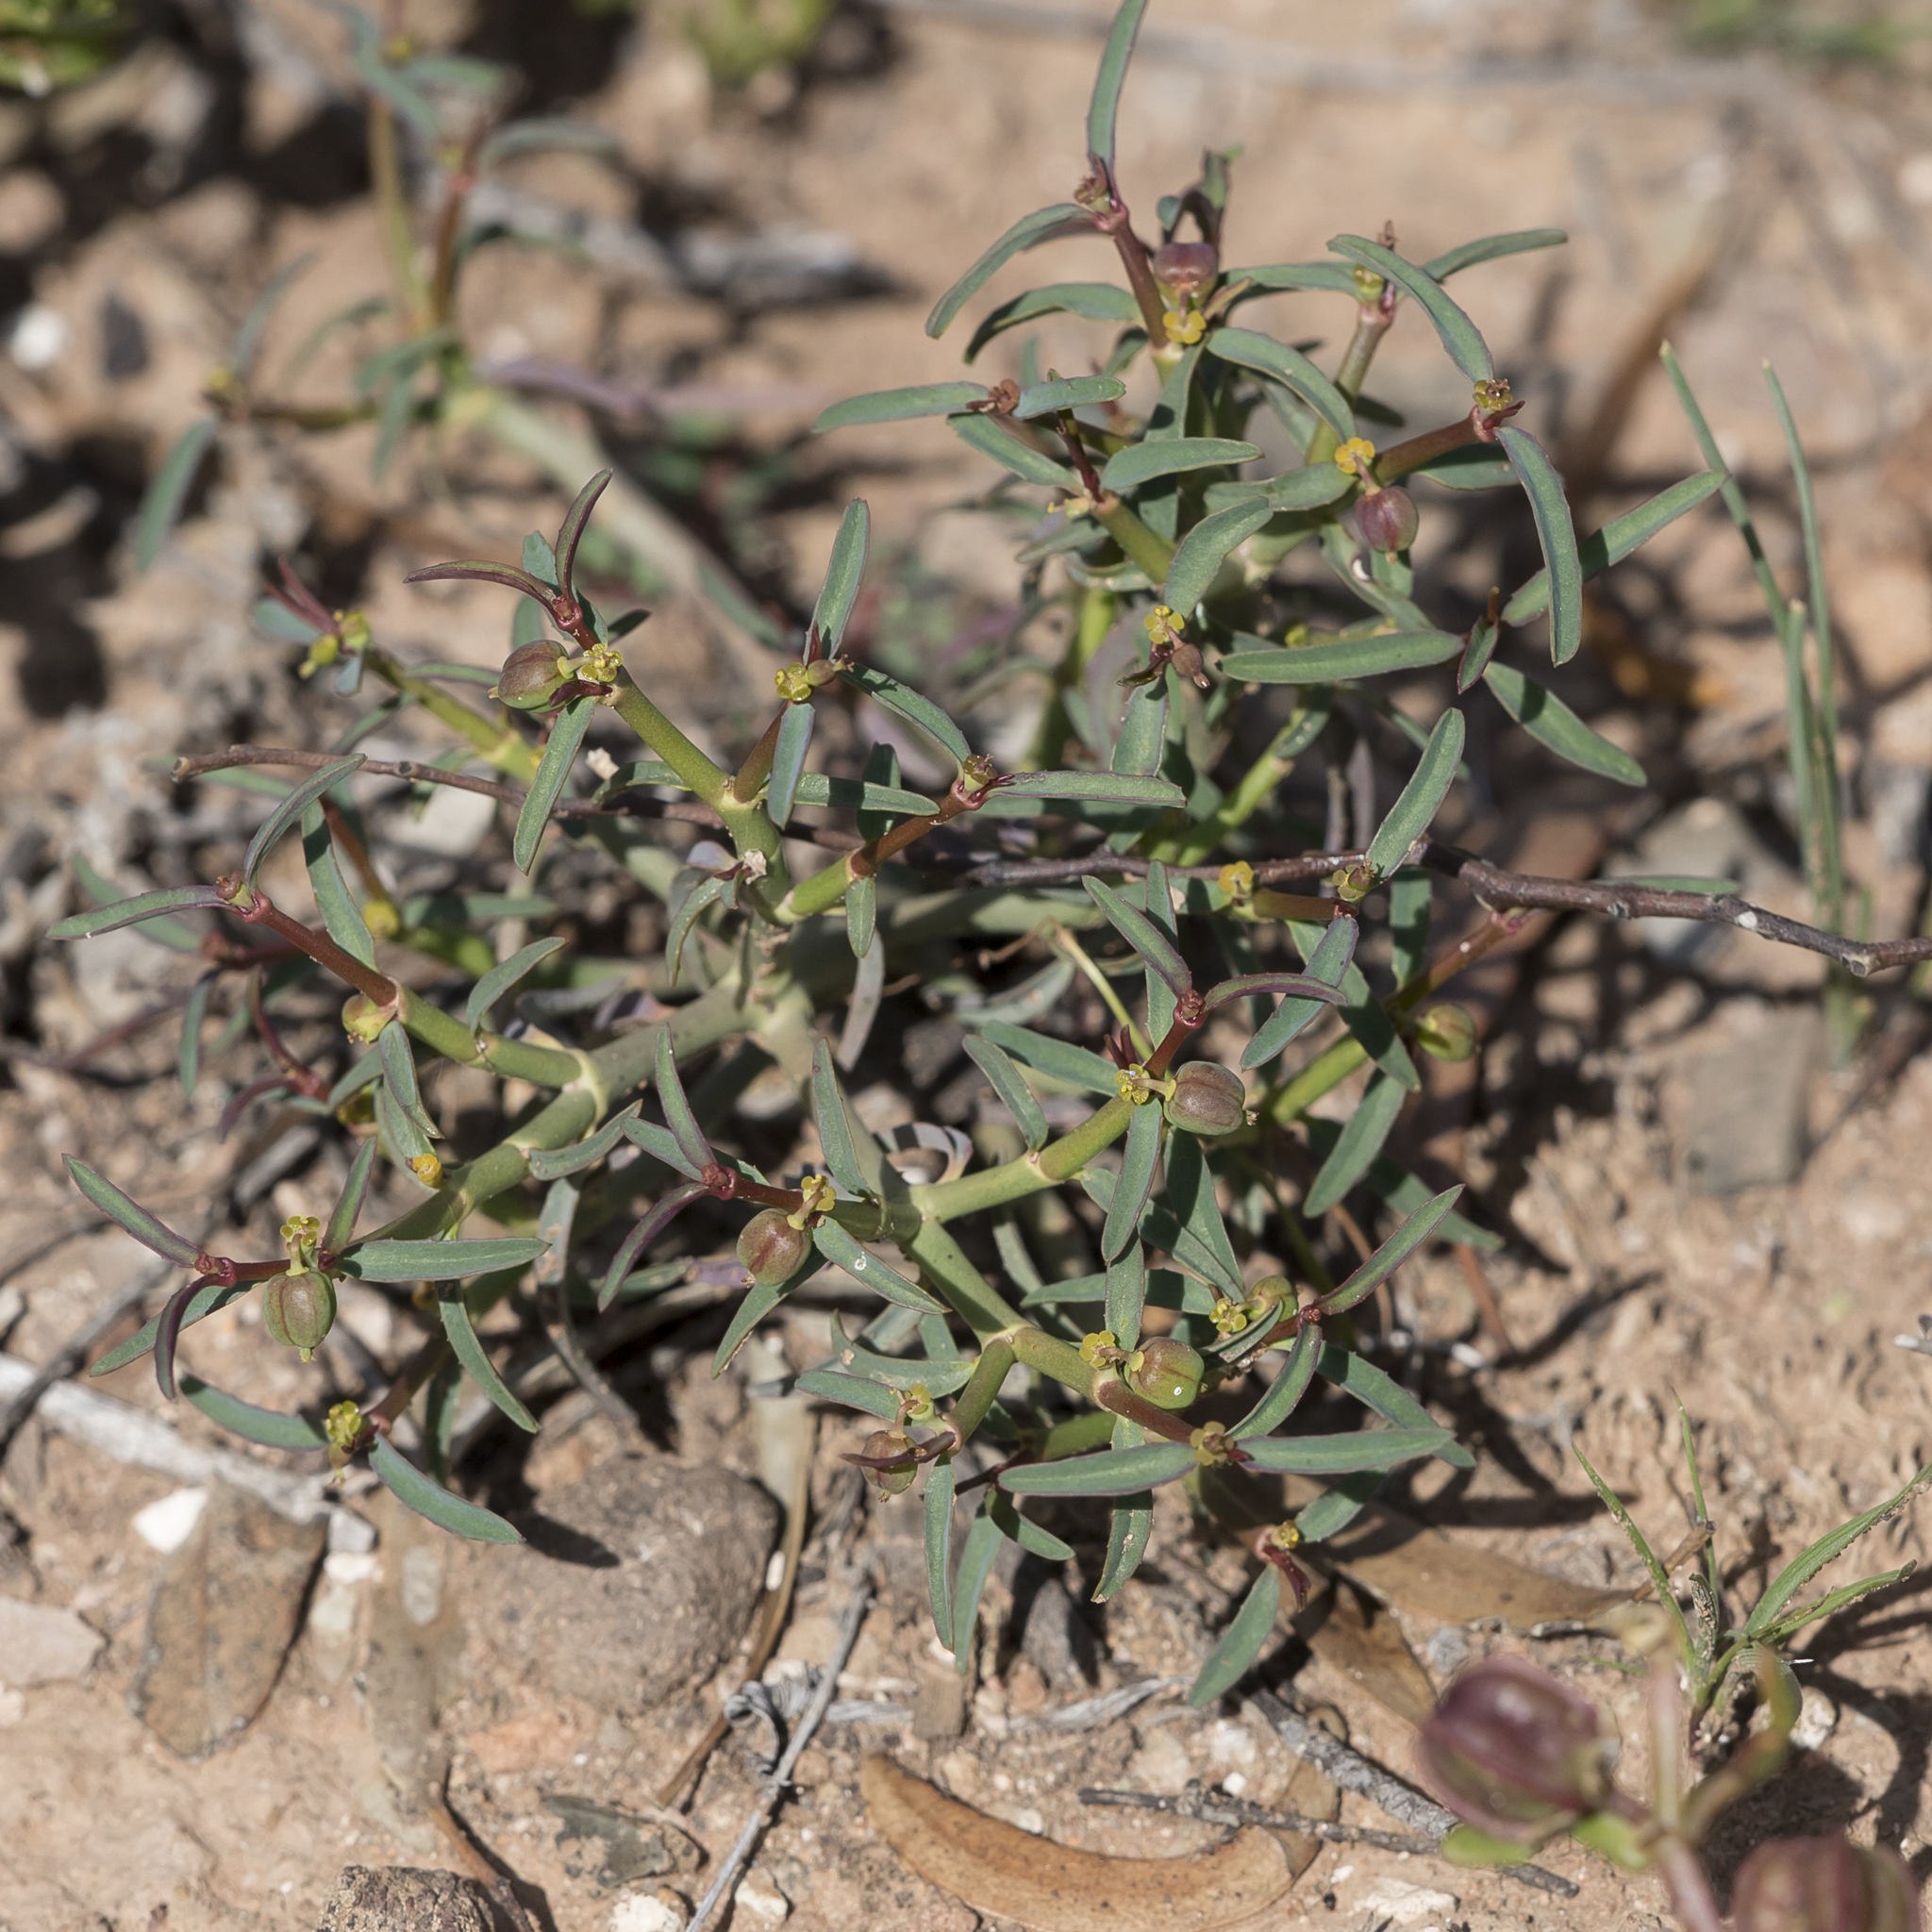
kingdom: Plantae
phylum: Tracheophyta
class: Magnoliopsida
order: Malpighiales
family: Euphorbiaceae
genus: Euphorbia
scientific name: Euphorbia tannensis
